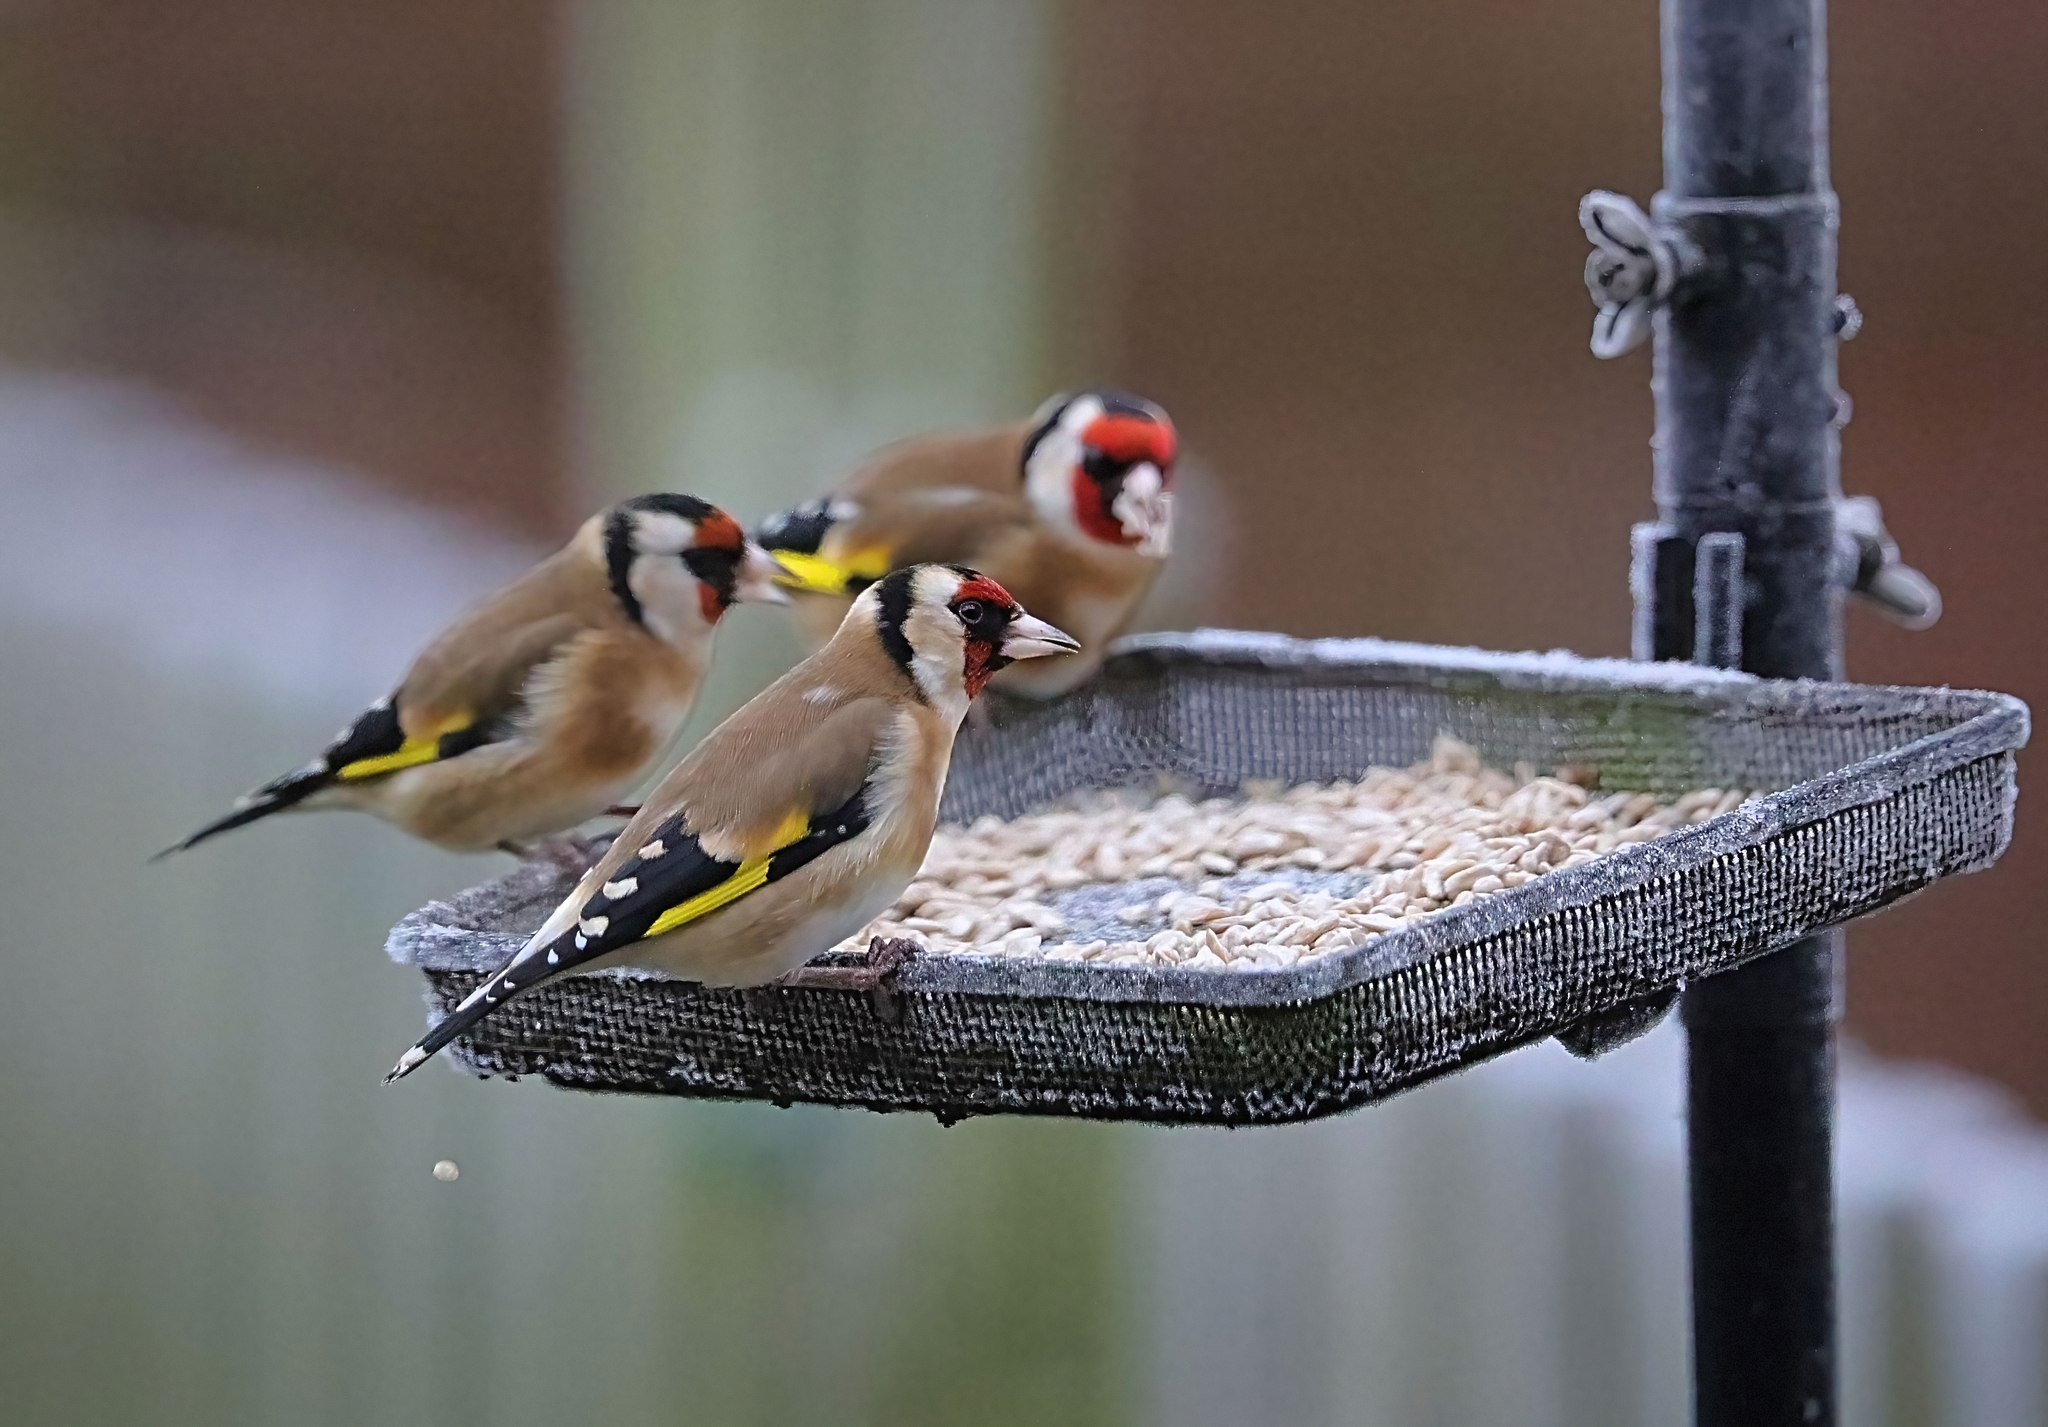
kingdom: Animalia
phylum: Chordata
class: Aves
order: Passeriformes
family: Fringillidae
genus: Carduelis
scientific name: Carduelis carduelis
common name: European goldfinch
